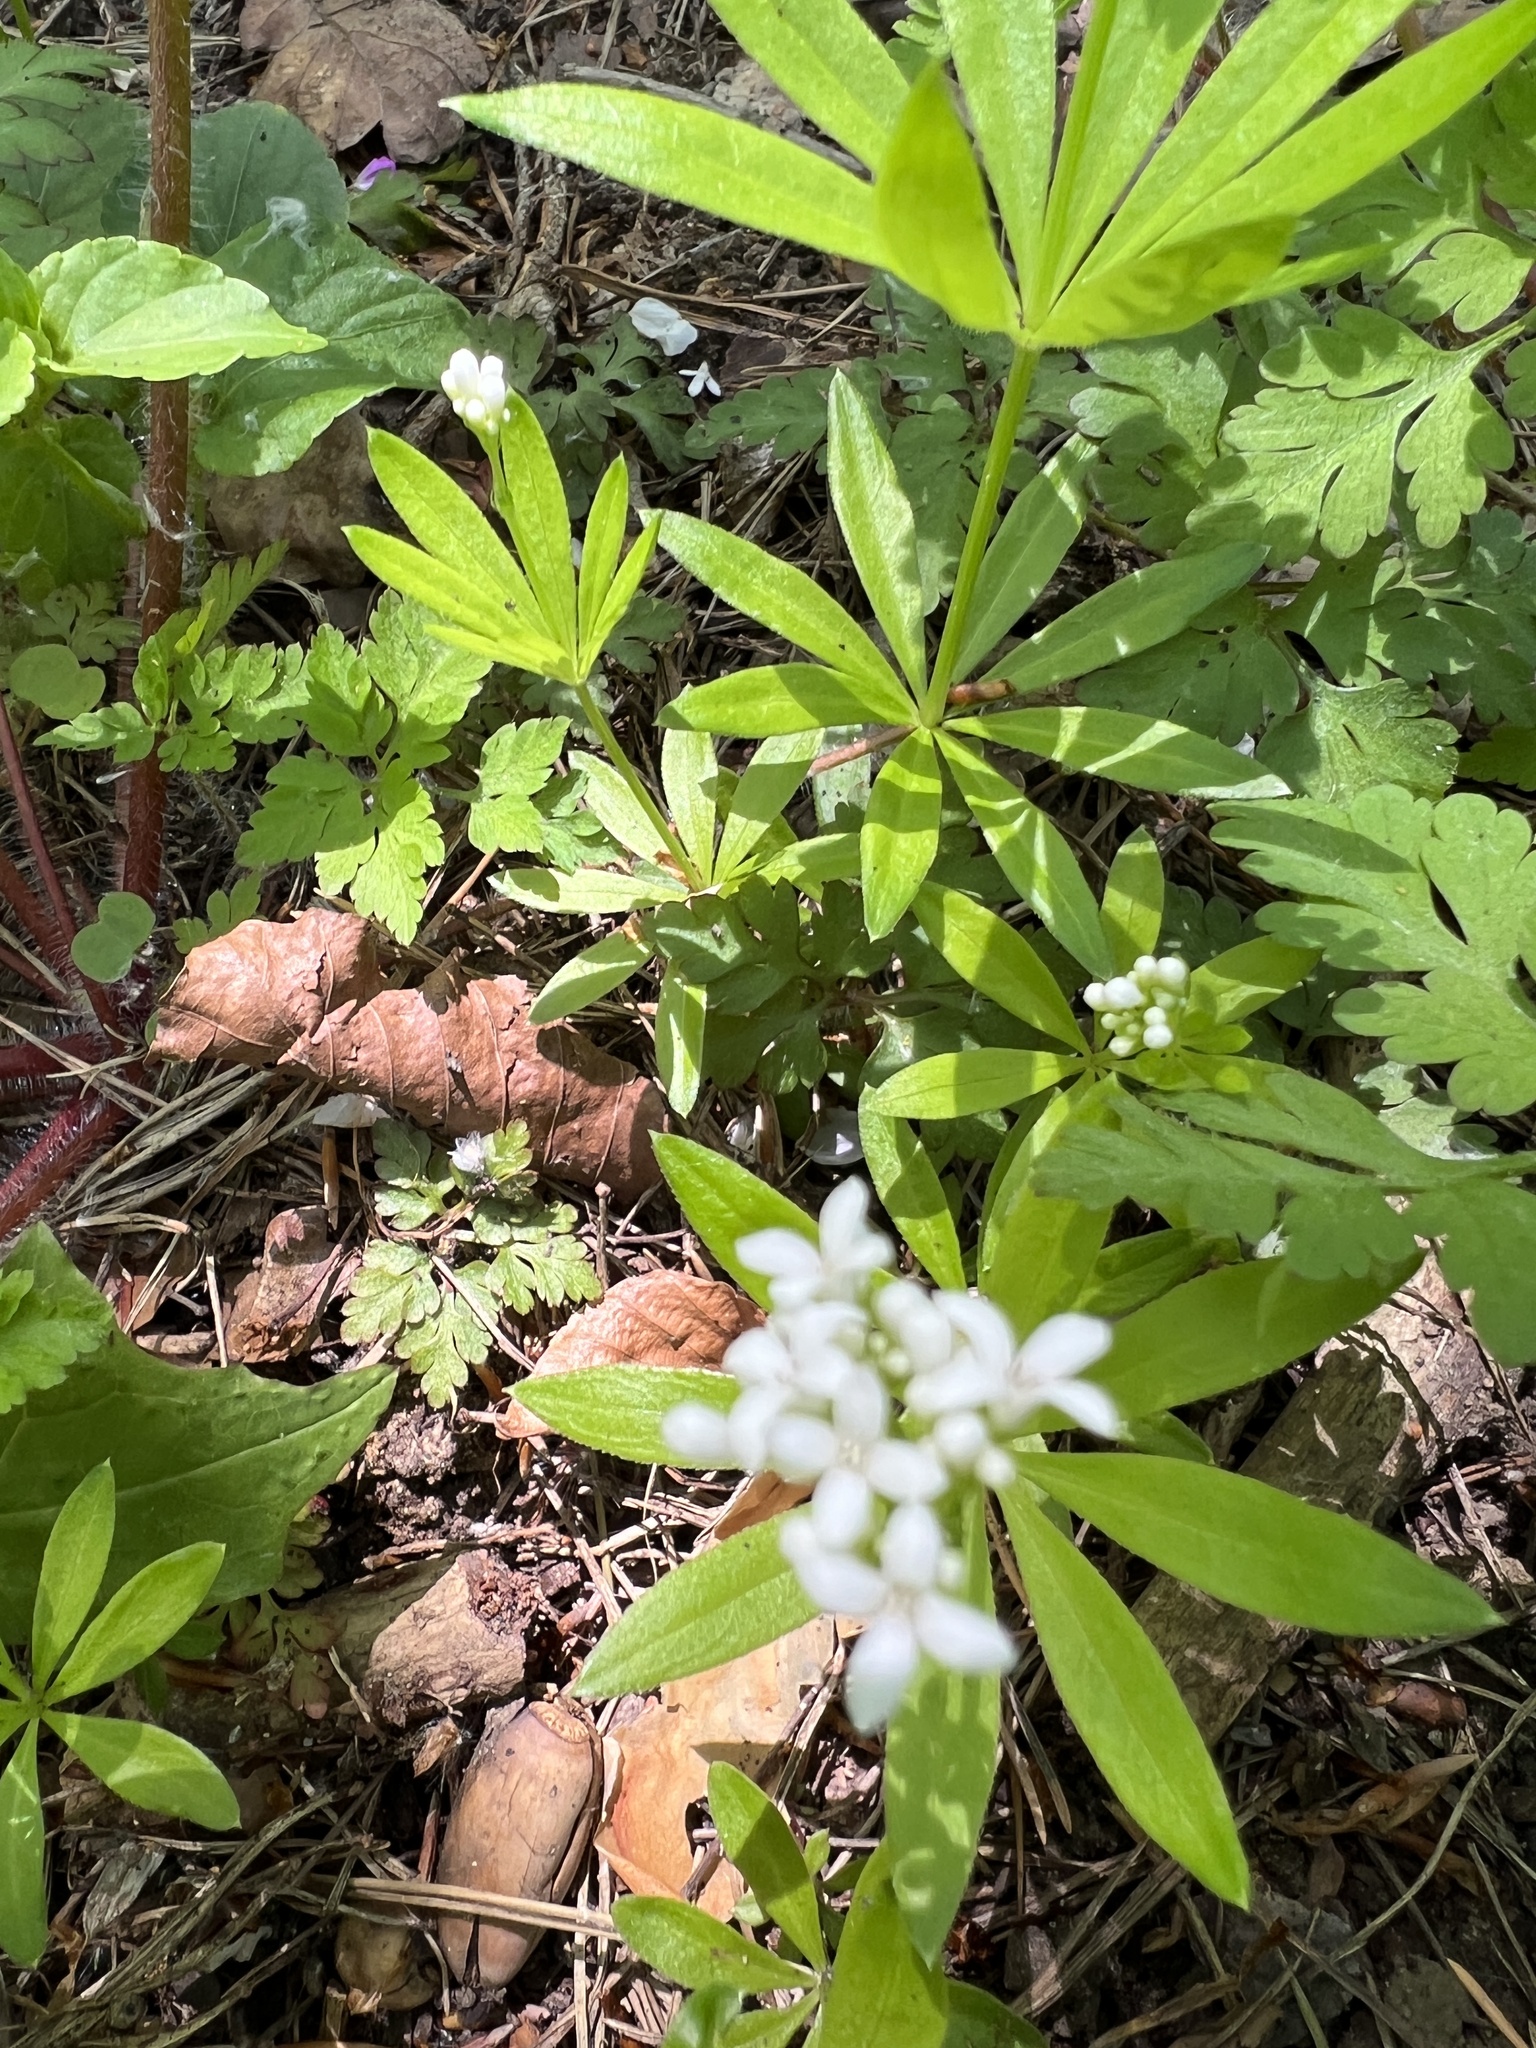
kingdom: Plantae
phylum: Tracheophyta
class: Magnoliopsida
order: Gentianales
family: Rubiaceae
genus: Galium
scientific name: Galium odoratum
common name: Sweet woodruff
